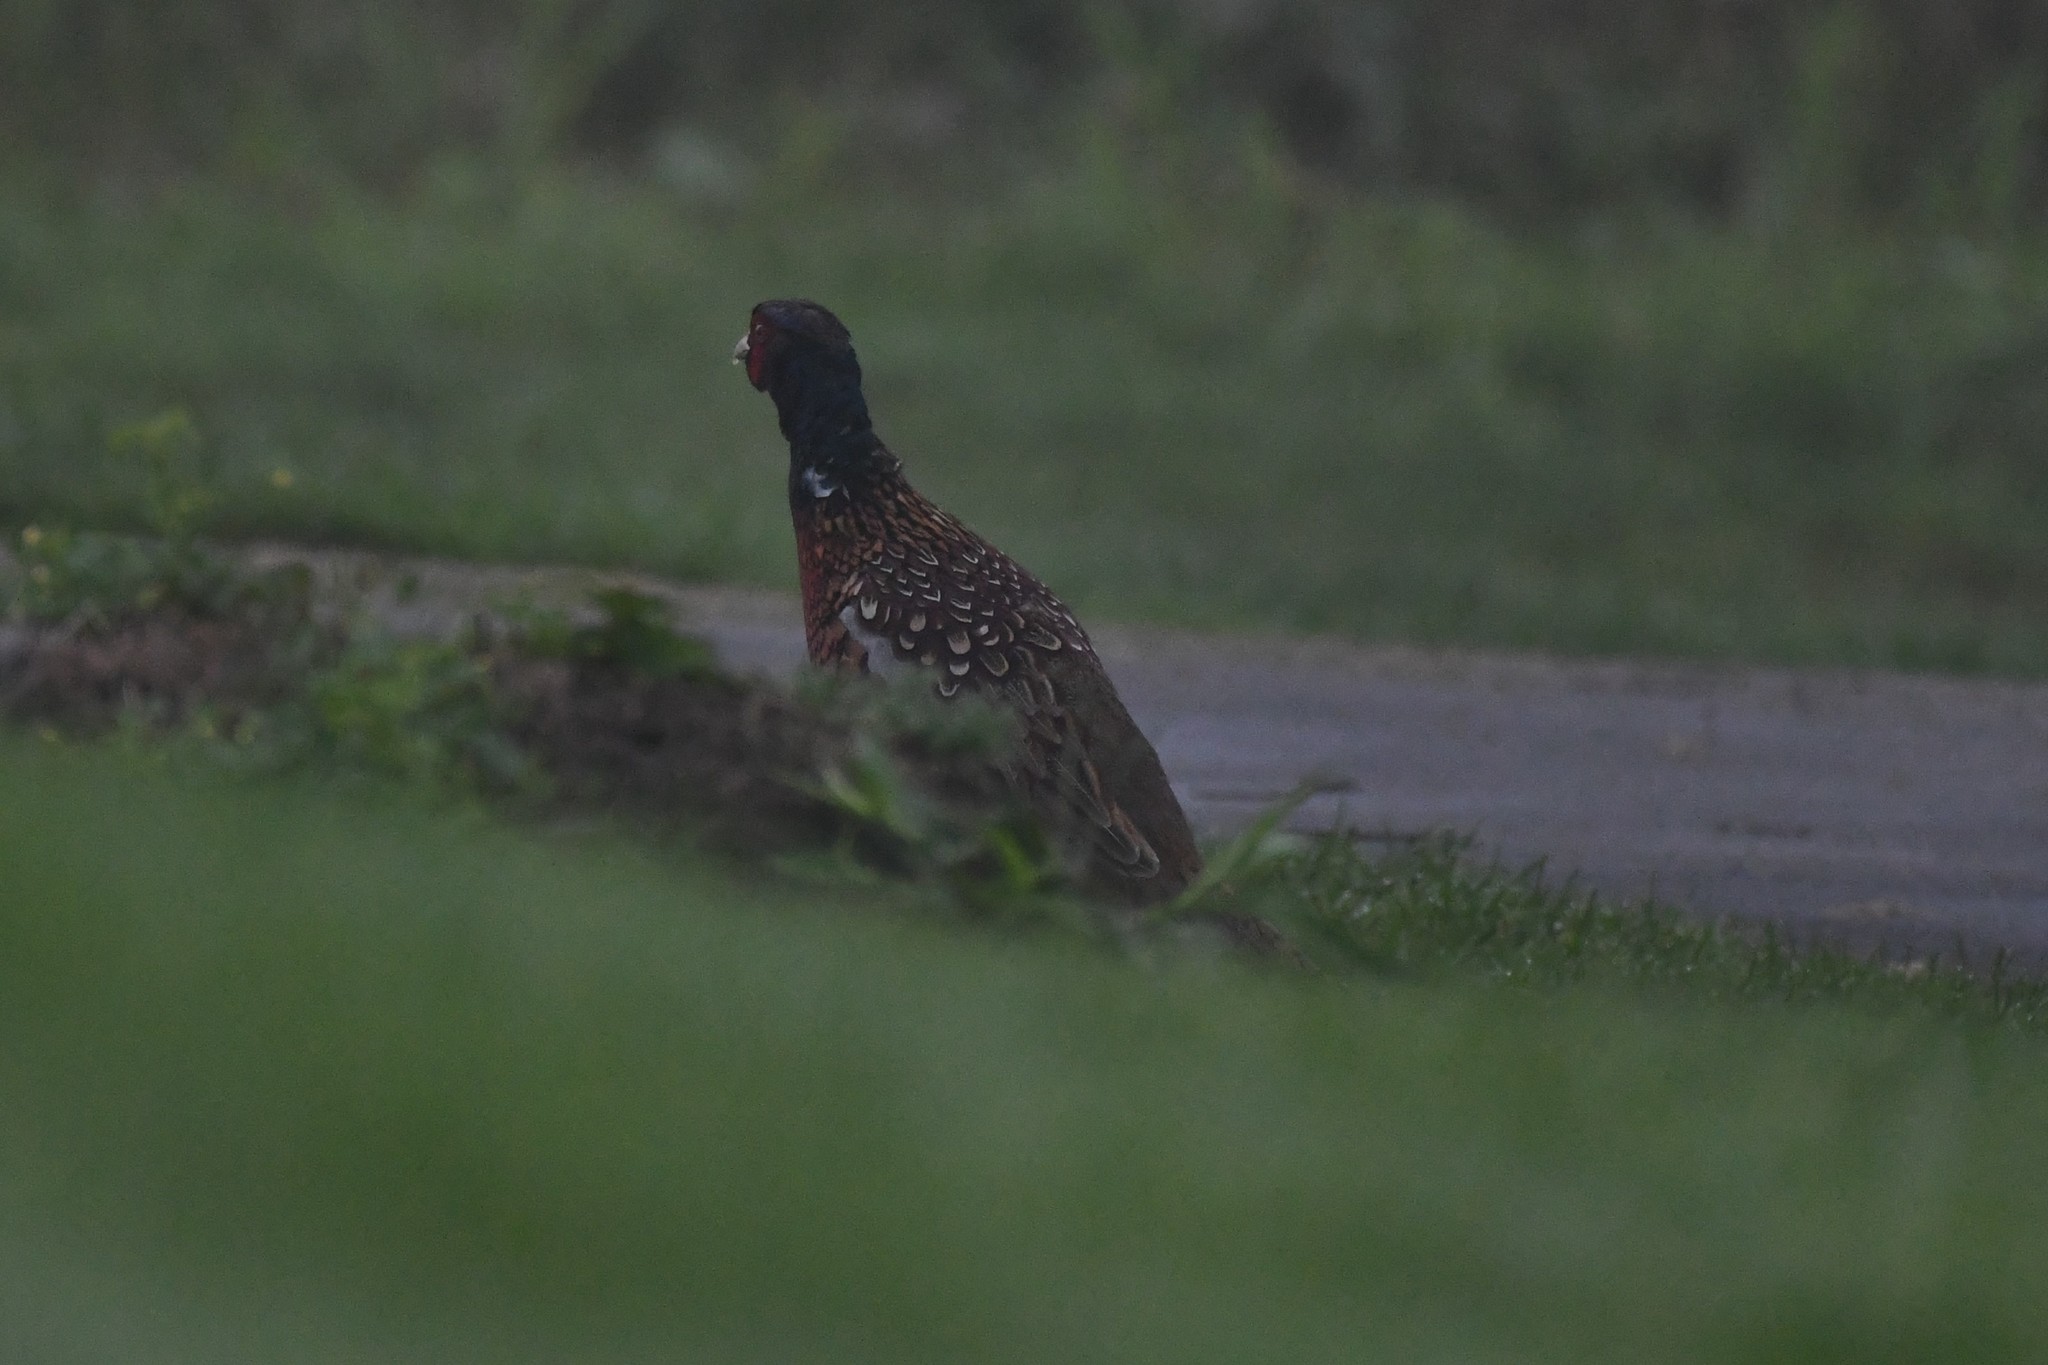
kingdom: Animalia
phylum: Chordata
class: Aves
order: Galliformes
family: Phasianidae
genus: Phasianus
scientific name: Phasianus colchicus
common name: Common pheasant
